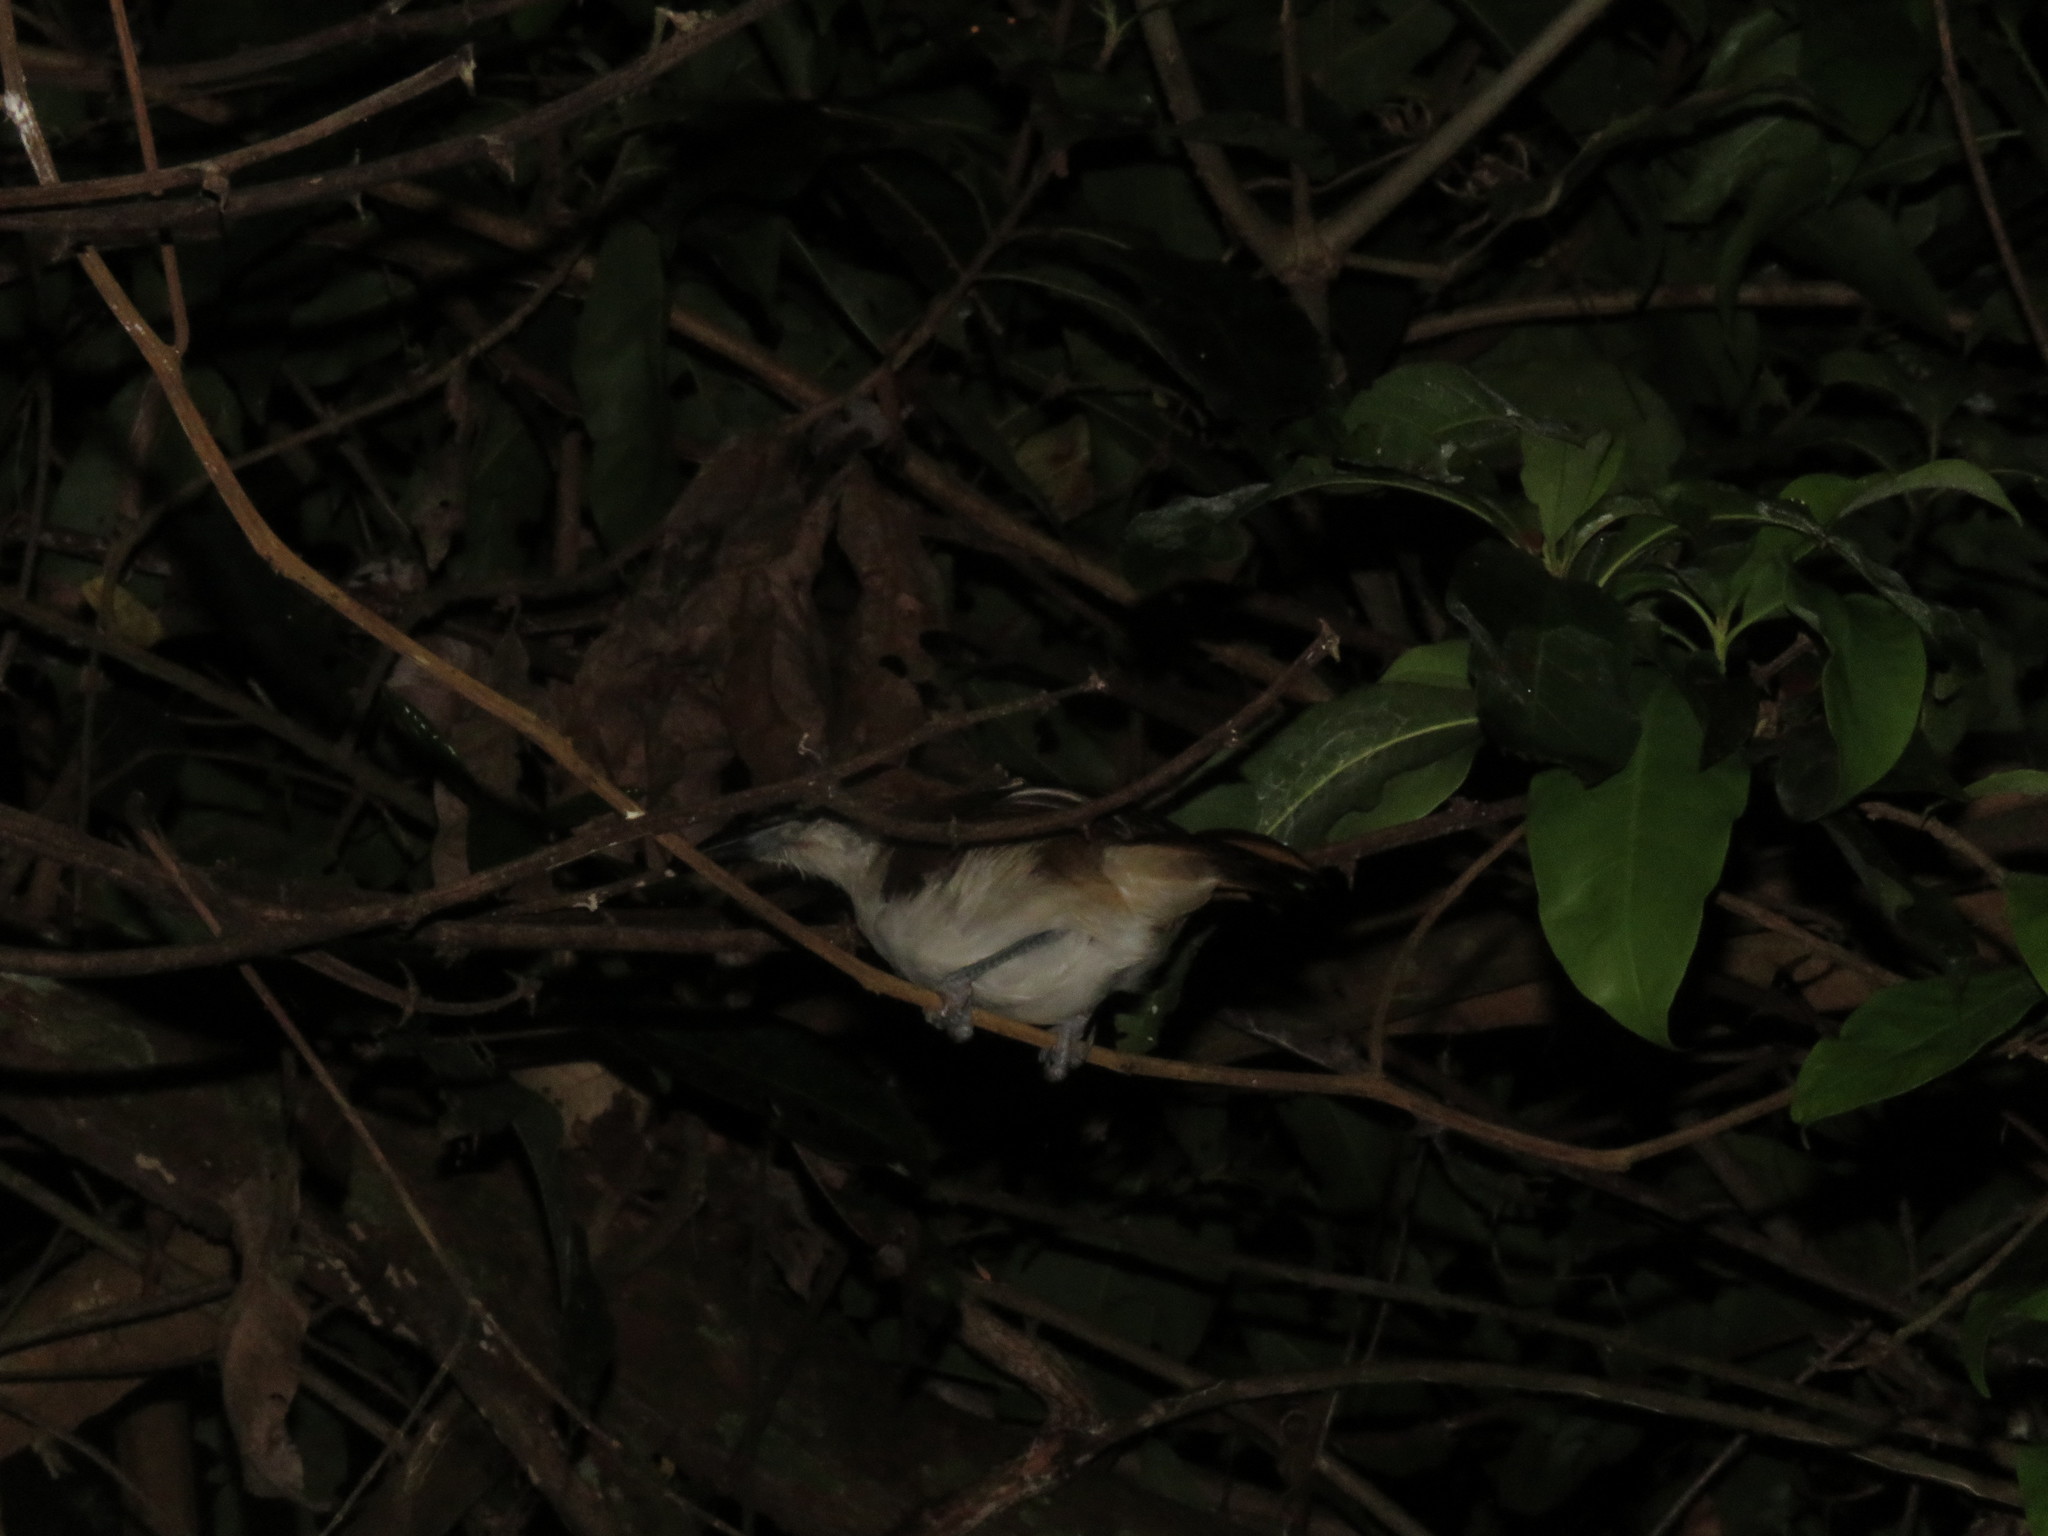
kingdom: Animalia
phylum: Chordata
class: Aves
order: Passeriformes
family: Thamnophilidae
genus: Taraba
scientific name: Taraba major
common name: Great antshrike
